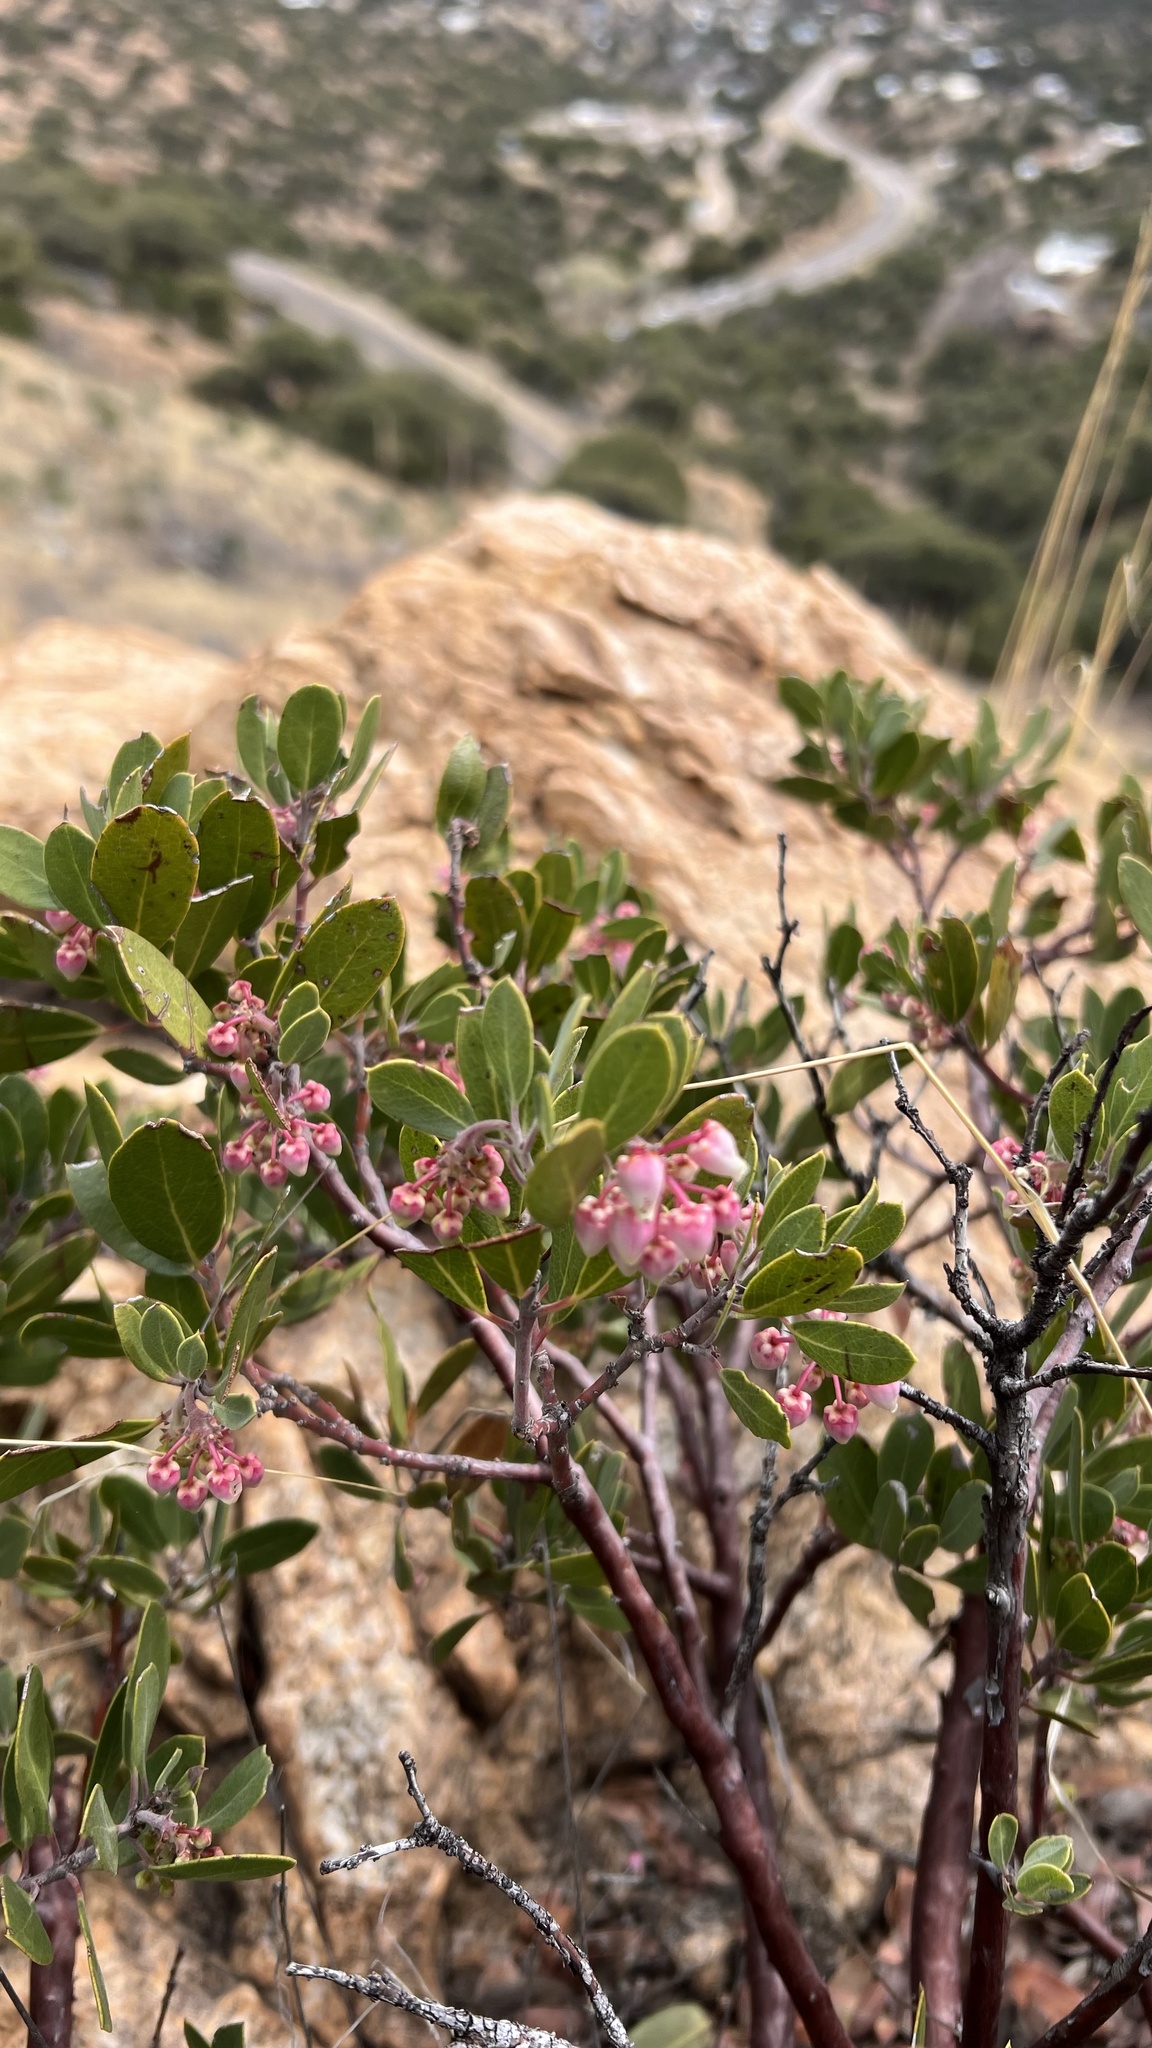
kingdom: Plantae
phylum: Tracheophyta
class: Magnoliopsida
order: Ericales
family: Ericaceae
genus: Arctostaphylos
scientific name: Arctostaphylos pungens
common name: Mexican manzanita
